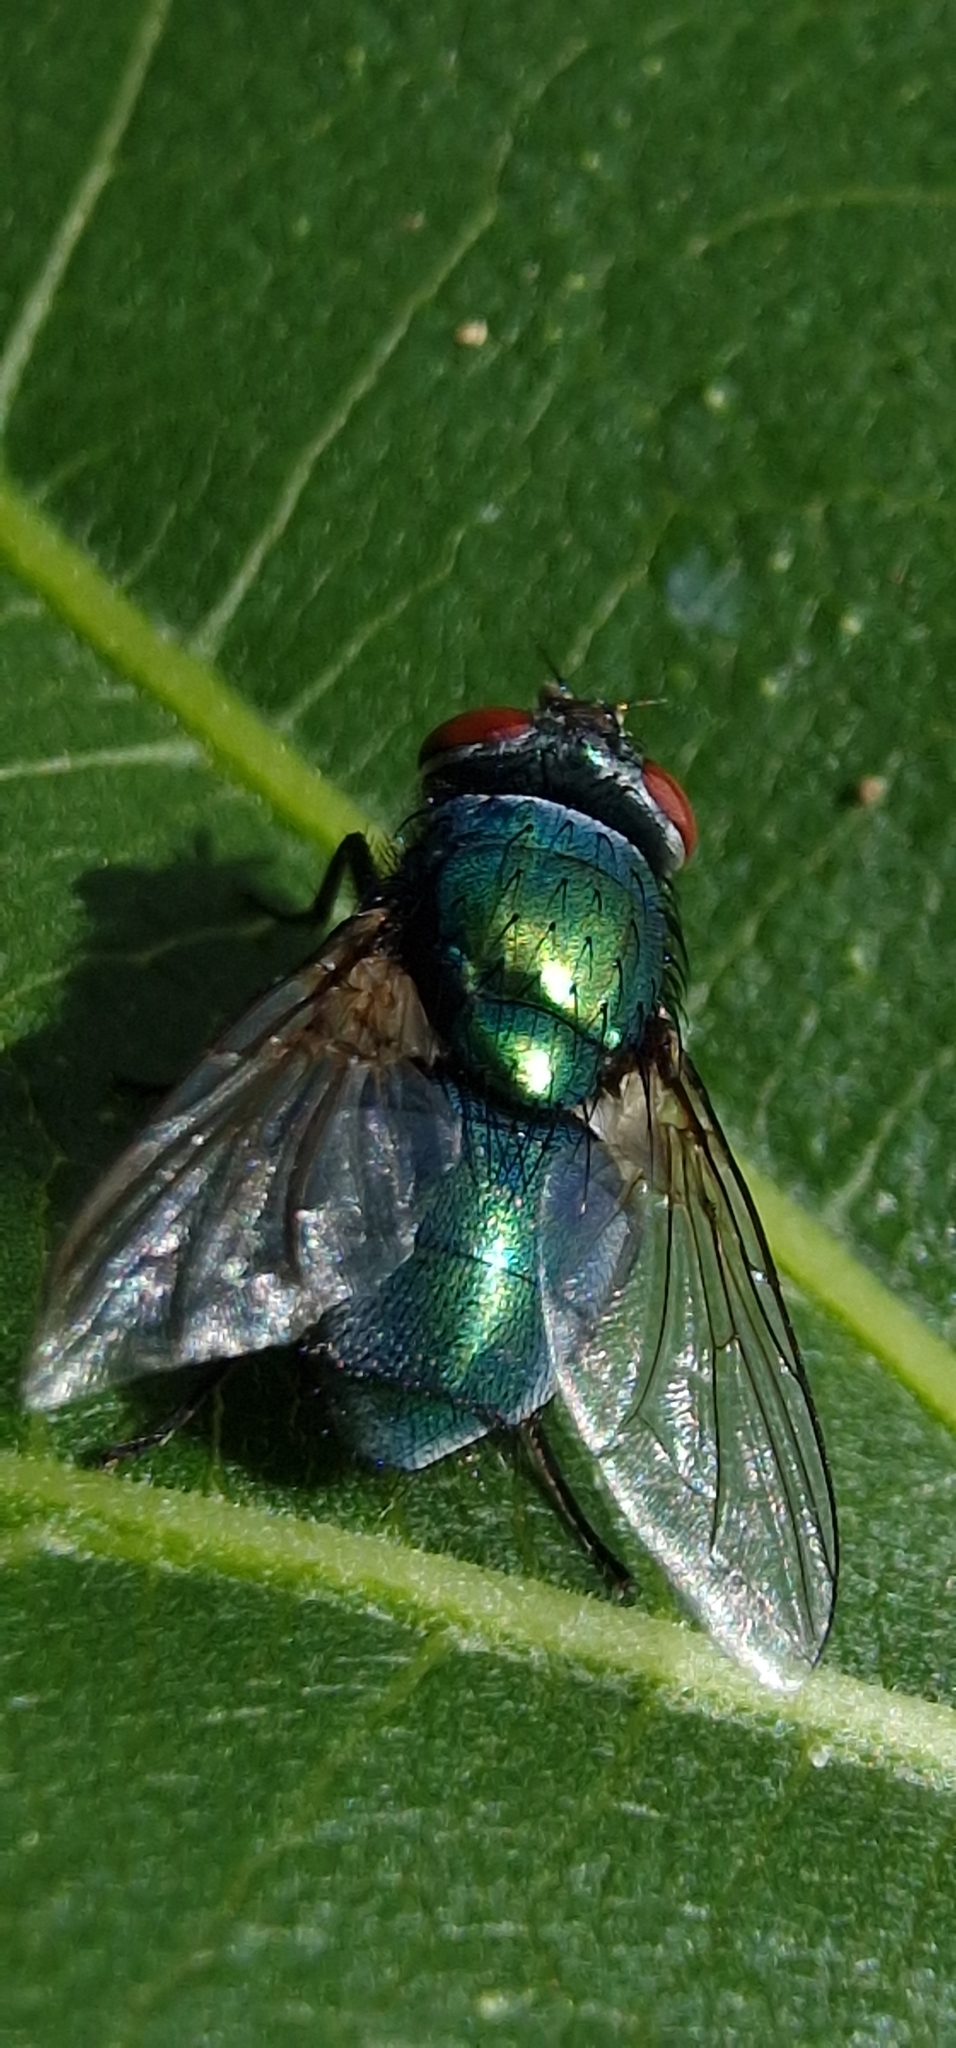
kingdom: Animalia
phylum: Arthropoda
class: Insecta
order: Diptera
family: Calliphoridae
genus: Lucilia
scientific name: Lucilia sericata
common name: Blow fly
